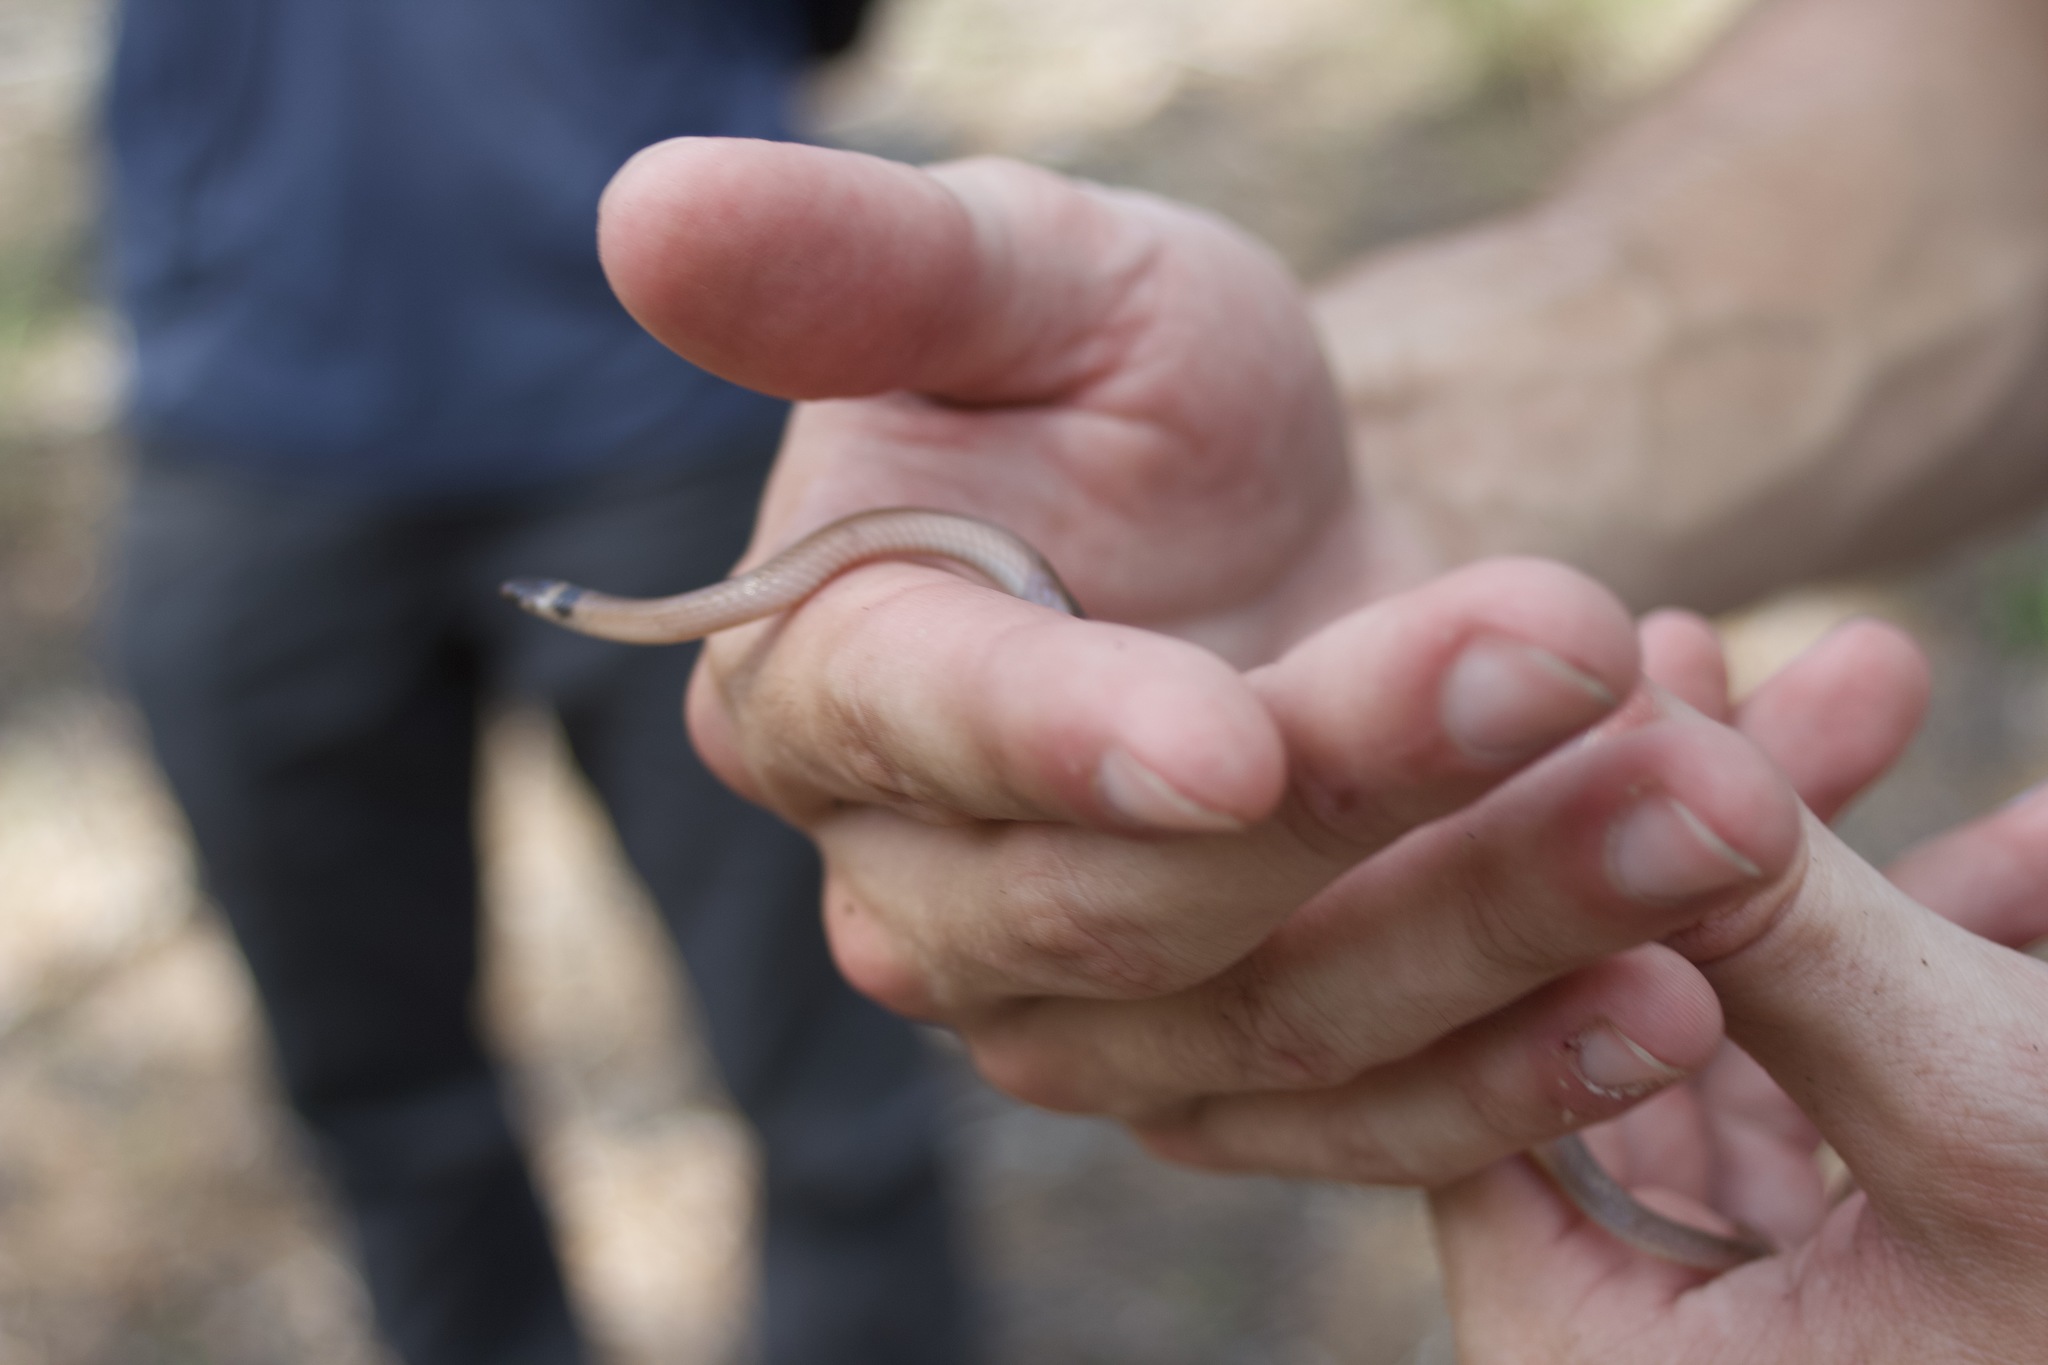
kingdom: Animalia
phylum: Chordata
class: Squamata
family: Colubridae
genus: Tantilla
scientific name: Tantilla coronata
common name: Southeastern crowned snake
